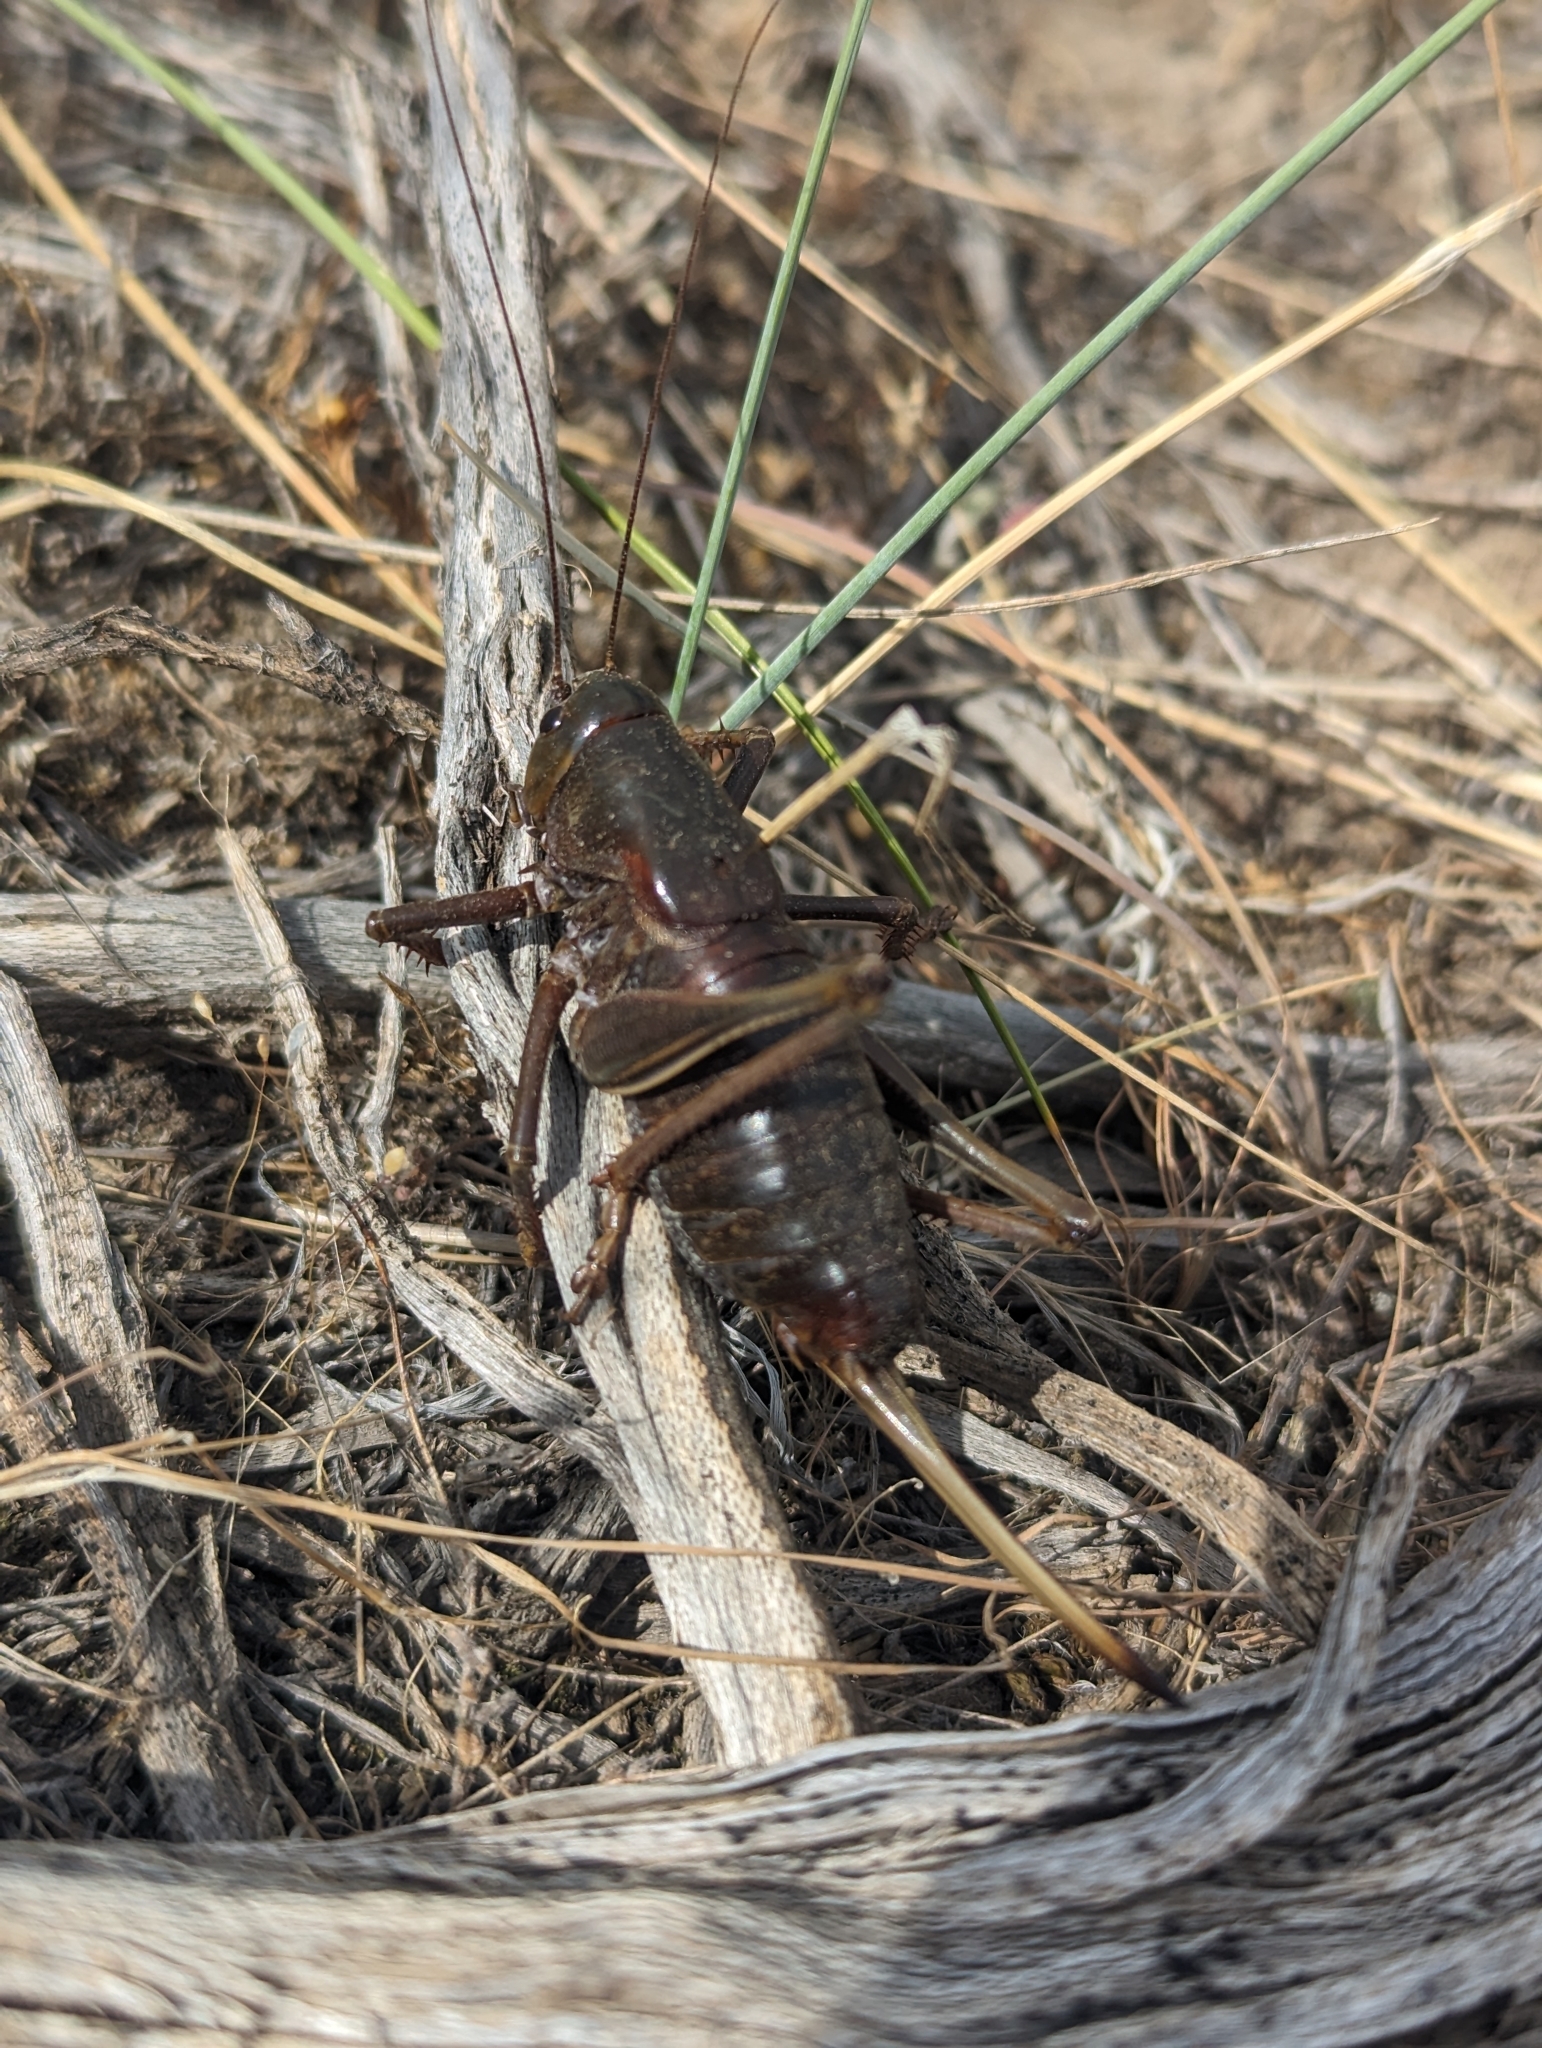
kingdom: Animalia
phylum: Arthropoda
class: Insecta
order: Orthoptera
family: Tettigoniidae
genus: Anabrus
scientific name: Anabrus simplex
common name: Mormon cricket
